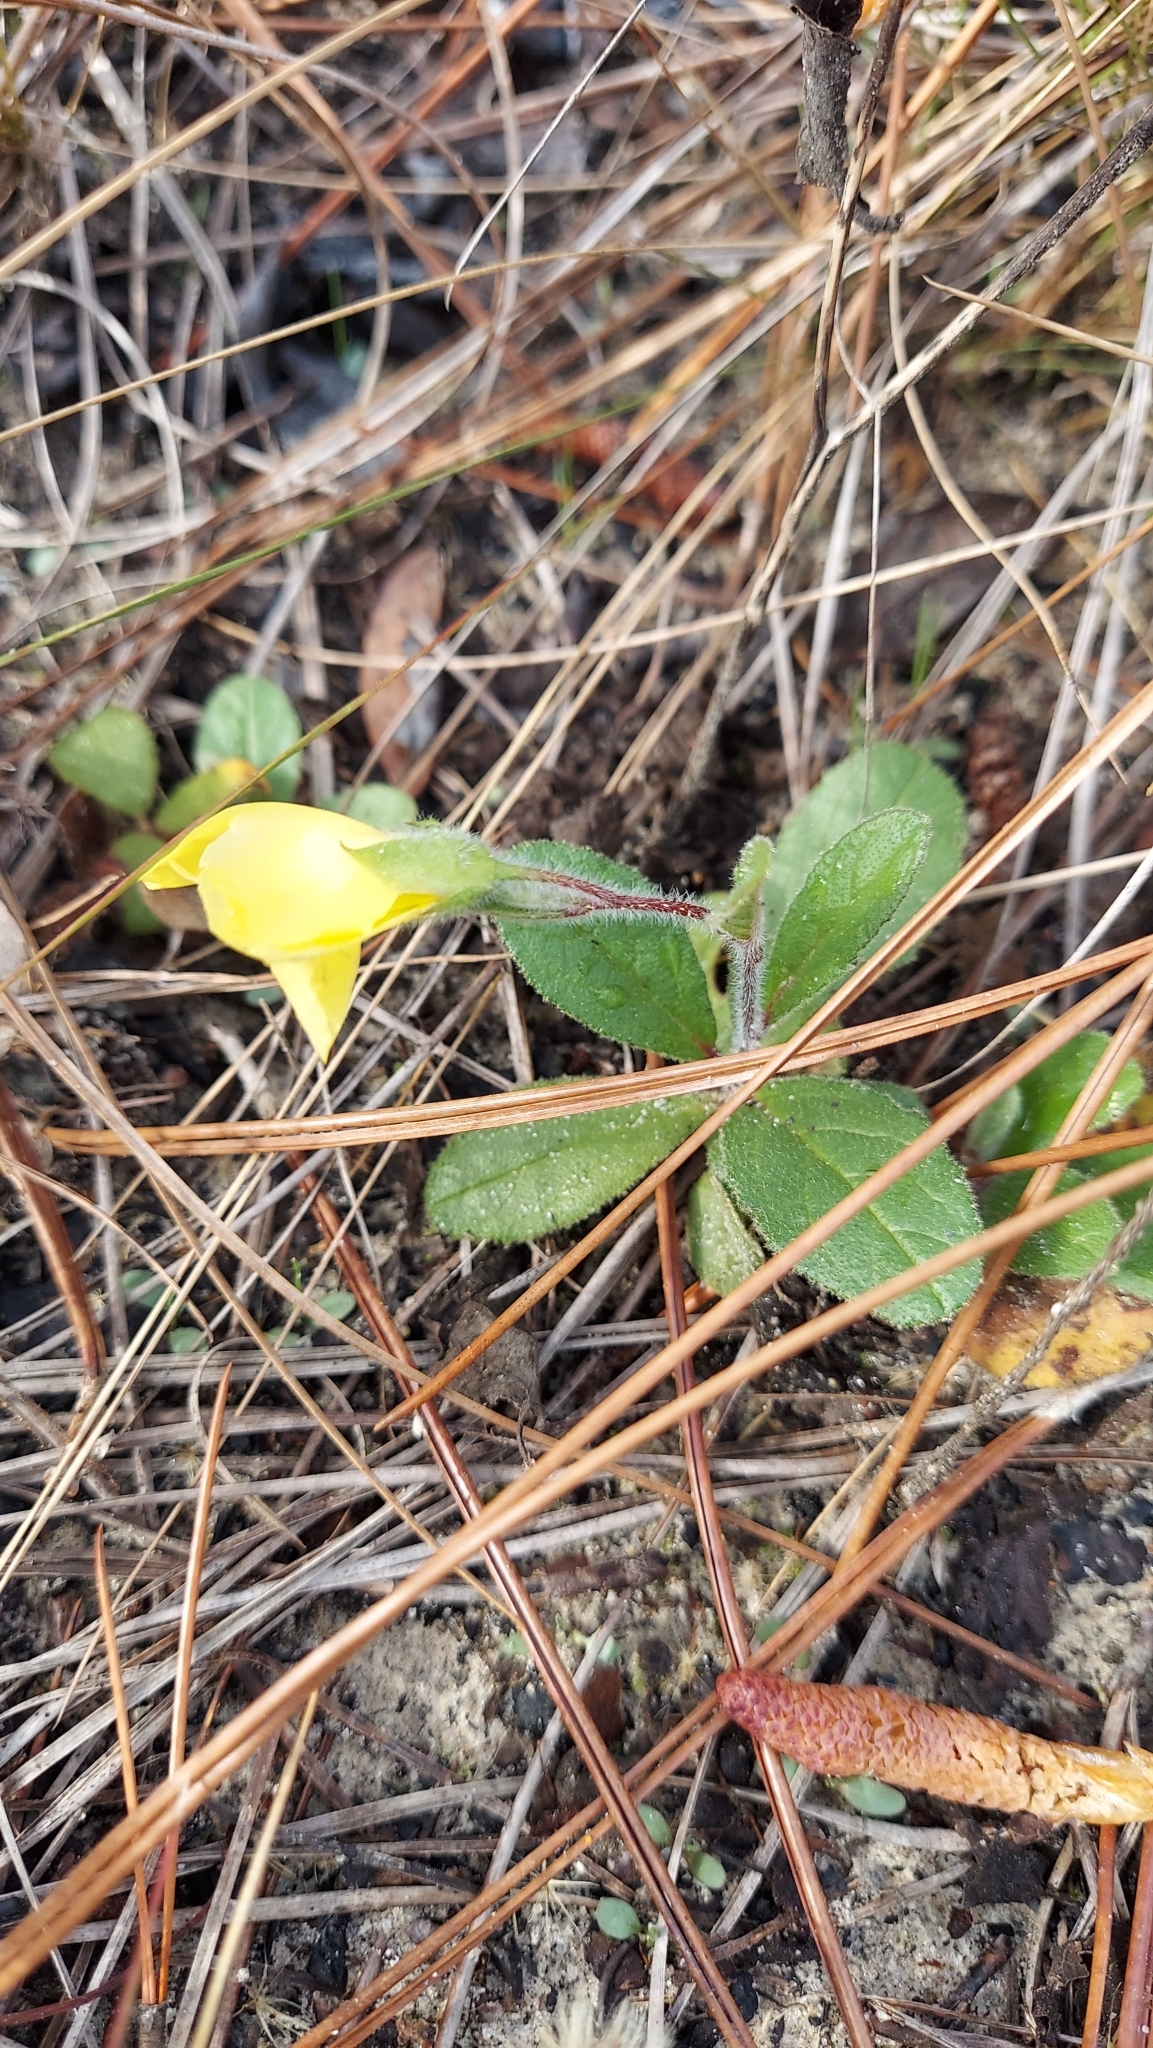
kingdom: Plantae
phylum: Tracheophyta
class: Magnoliopsida
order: Malvales
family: Cistaceae
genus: Crocanthemum
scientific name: Crocanthemum carolinianum
